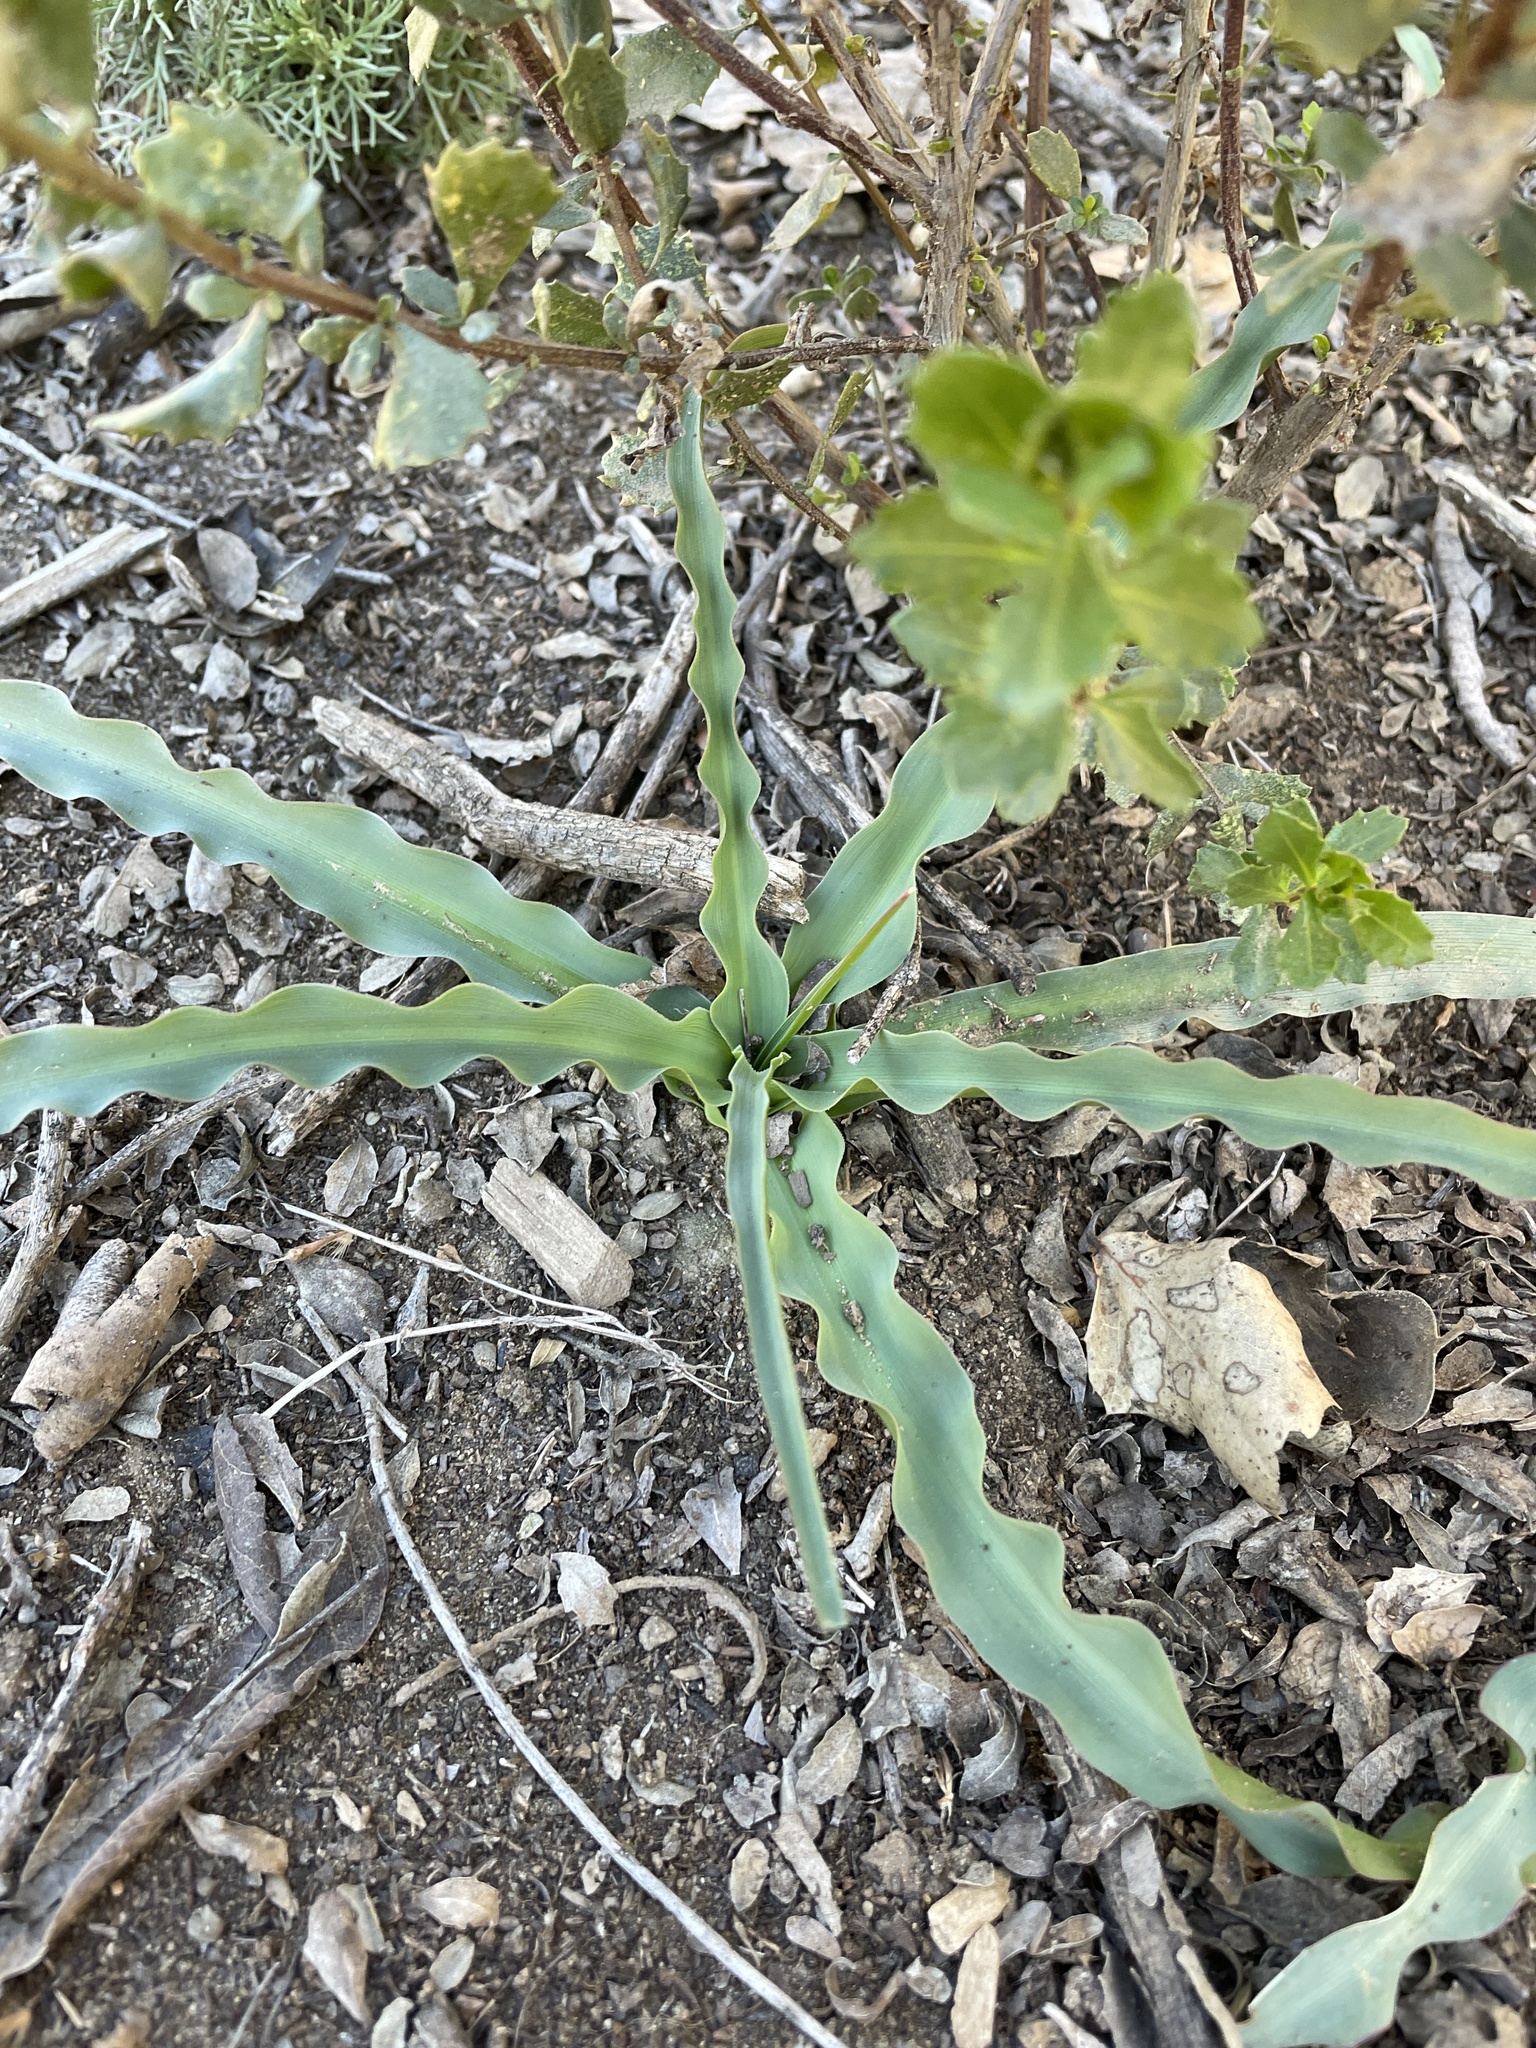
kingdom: Plantae
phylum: Tracheophyta
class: Liliopsida
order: Asparagales
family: Asparagaceae
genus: Chlorogalum
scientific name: Chlorogalum pomeridianum
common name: Amole
